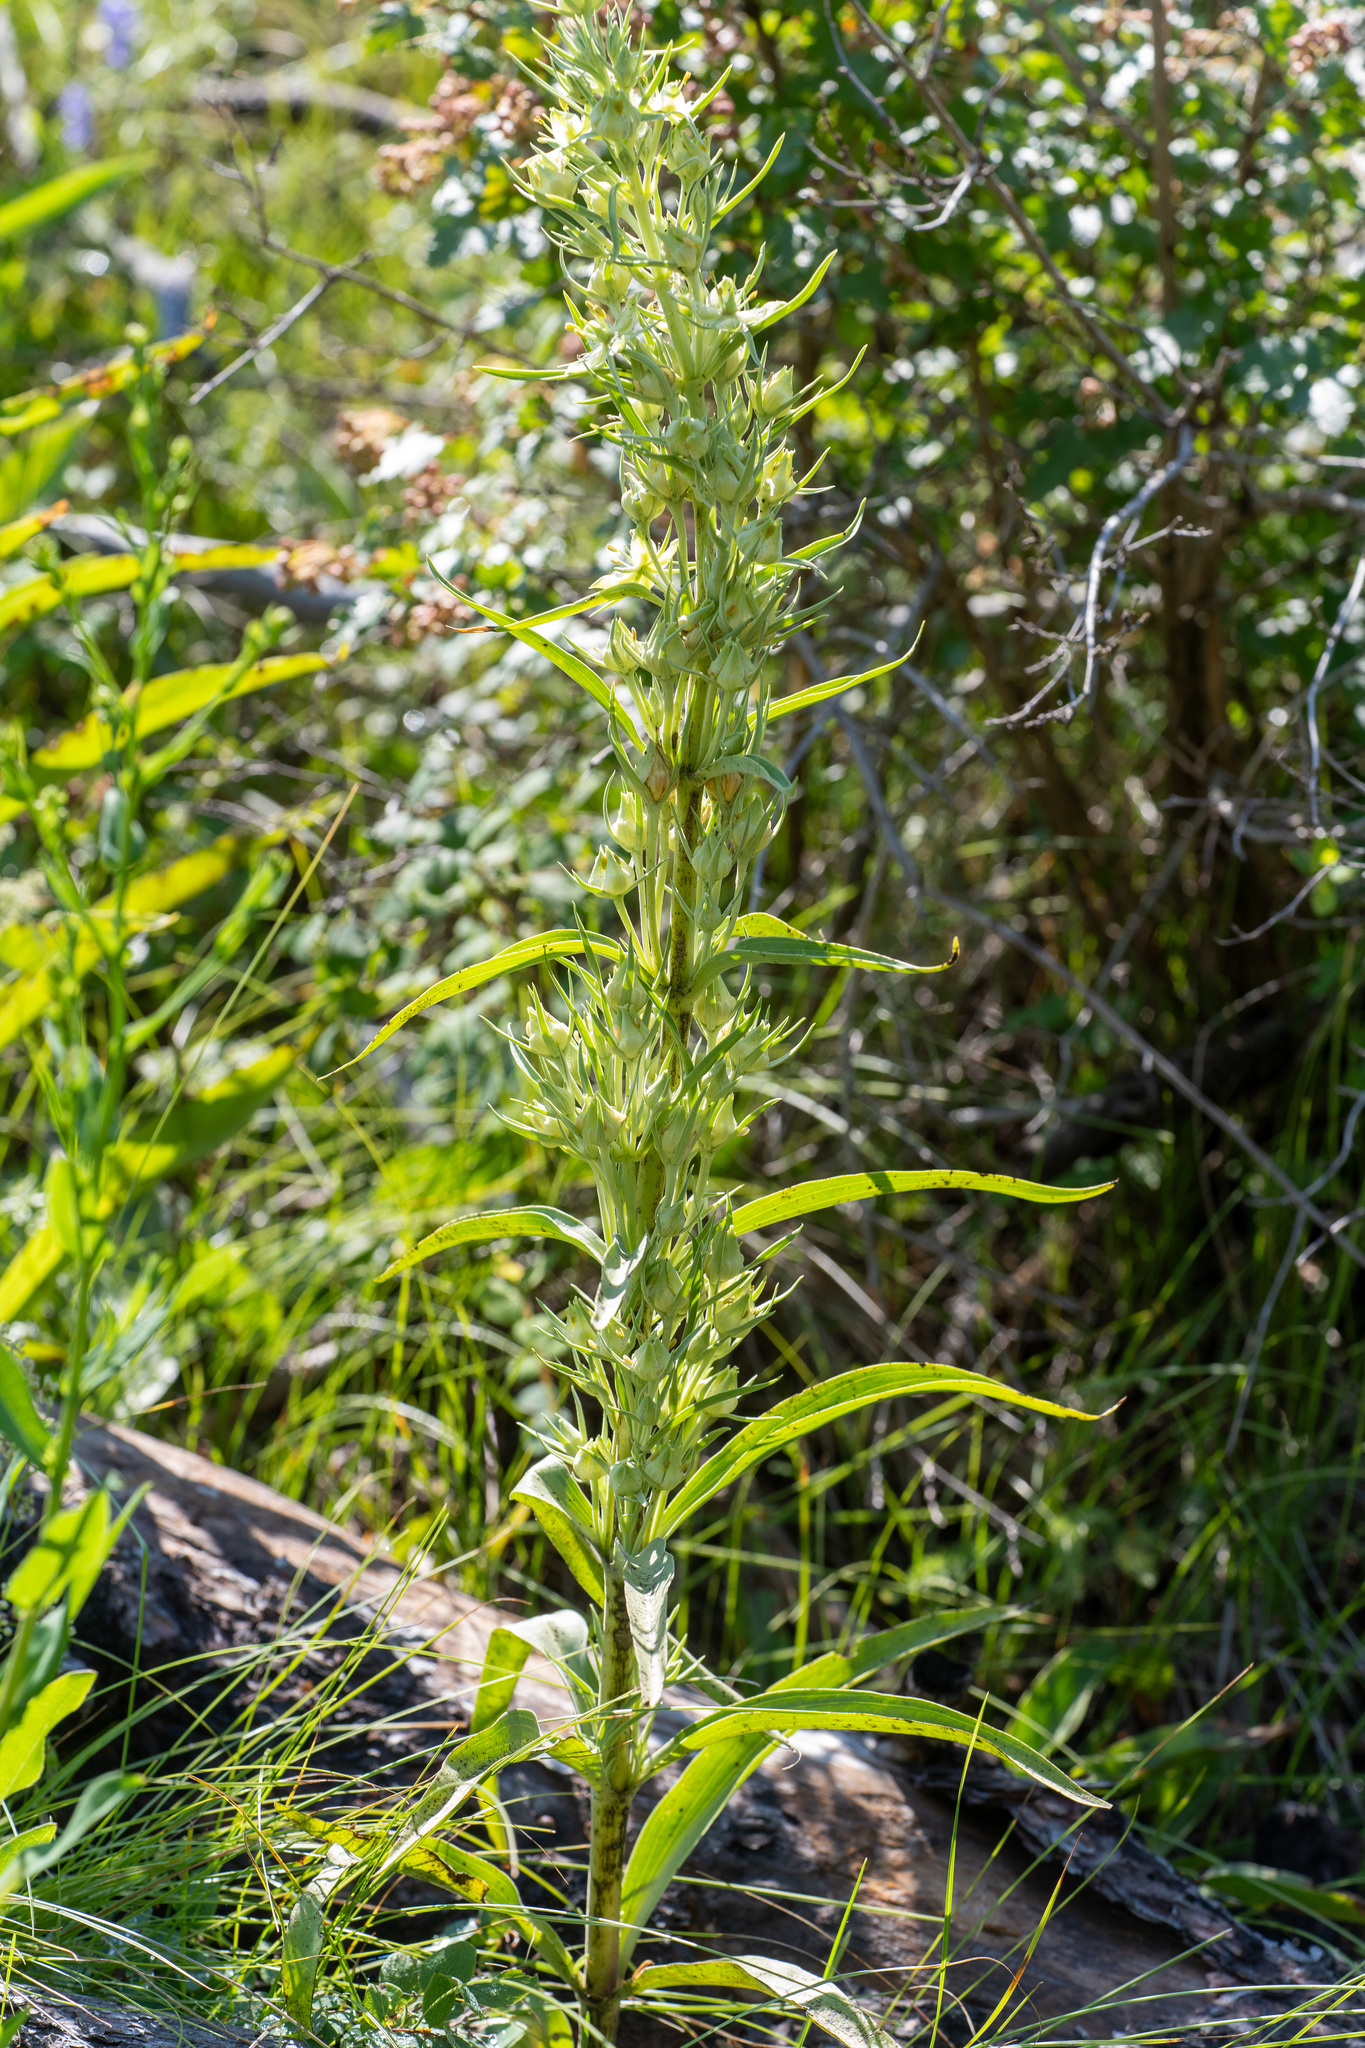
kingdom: Plantae
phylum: Tracheophyta
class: Magnoliopsida
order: Gentianales
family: Gentianaceae
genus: Frasera
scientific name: Frasera speciosa
